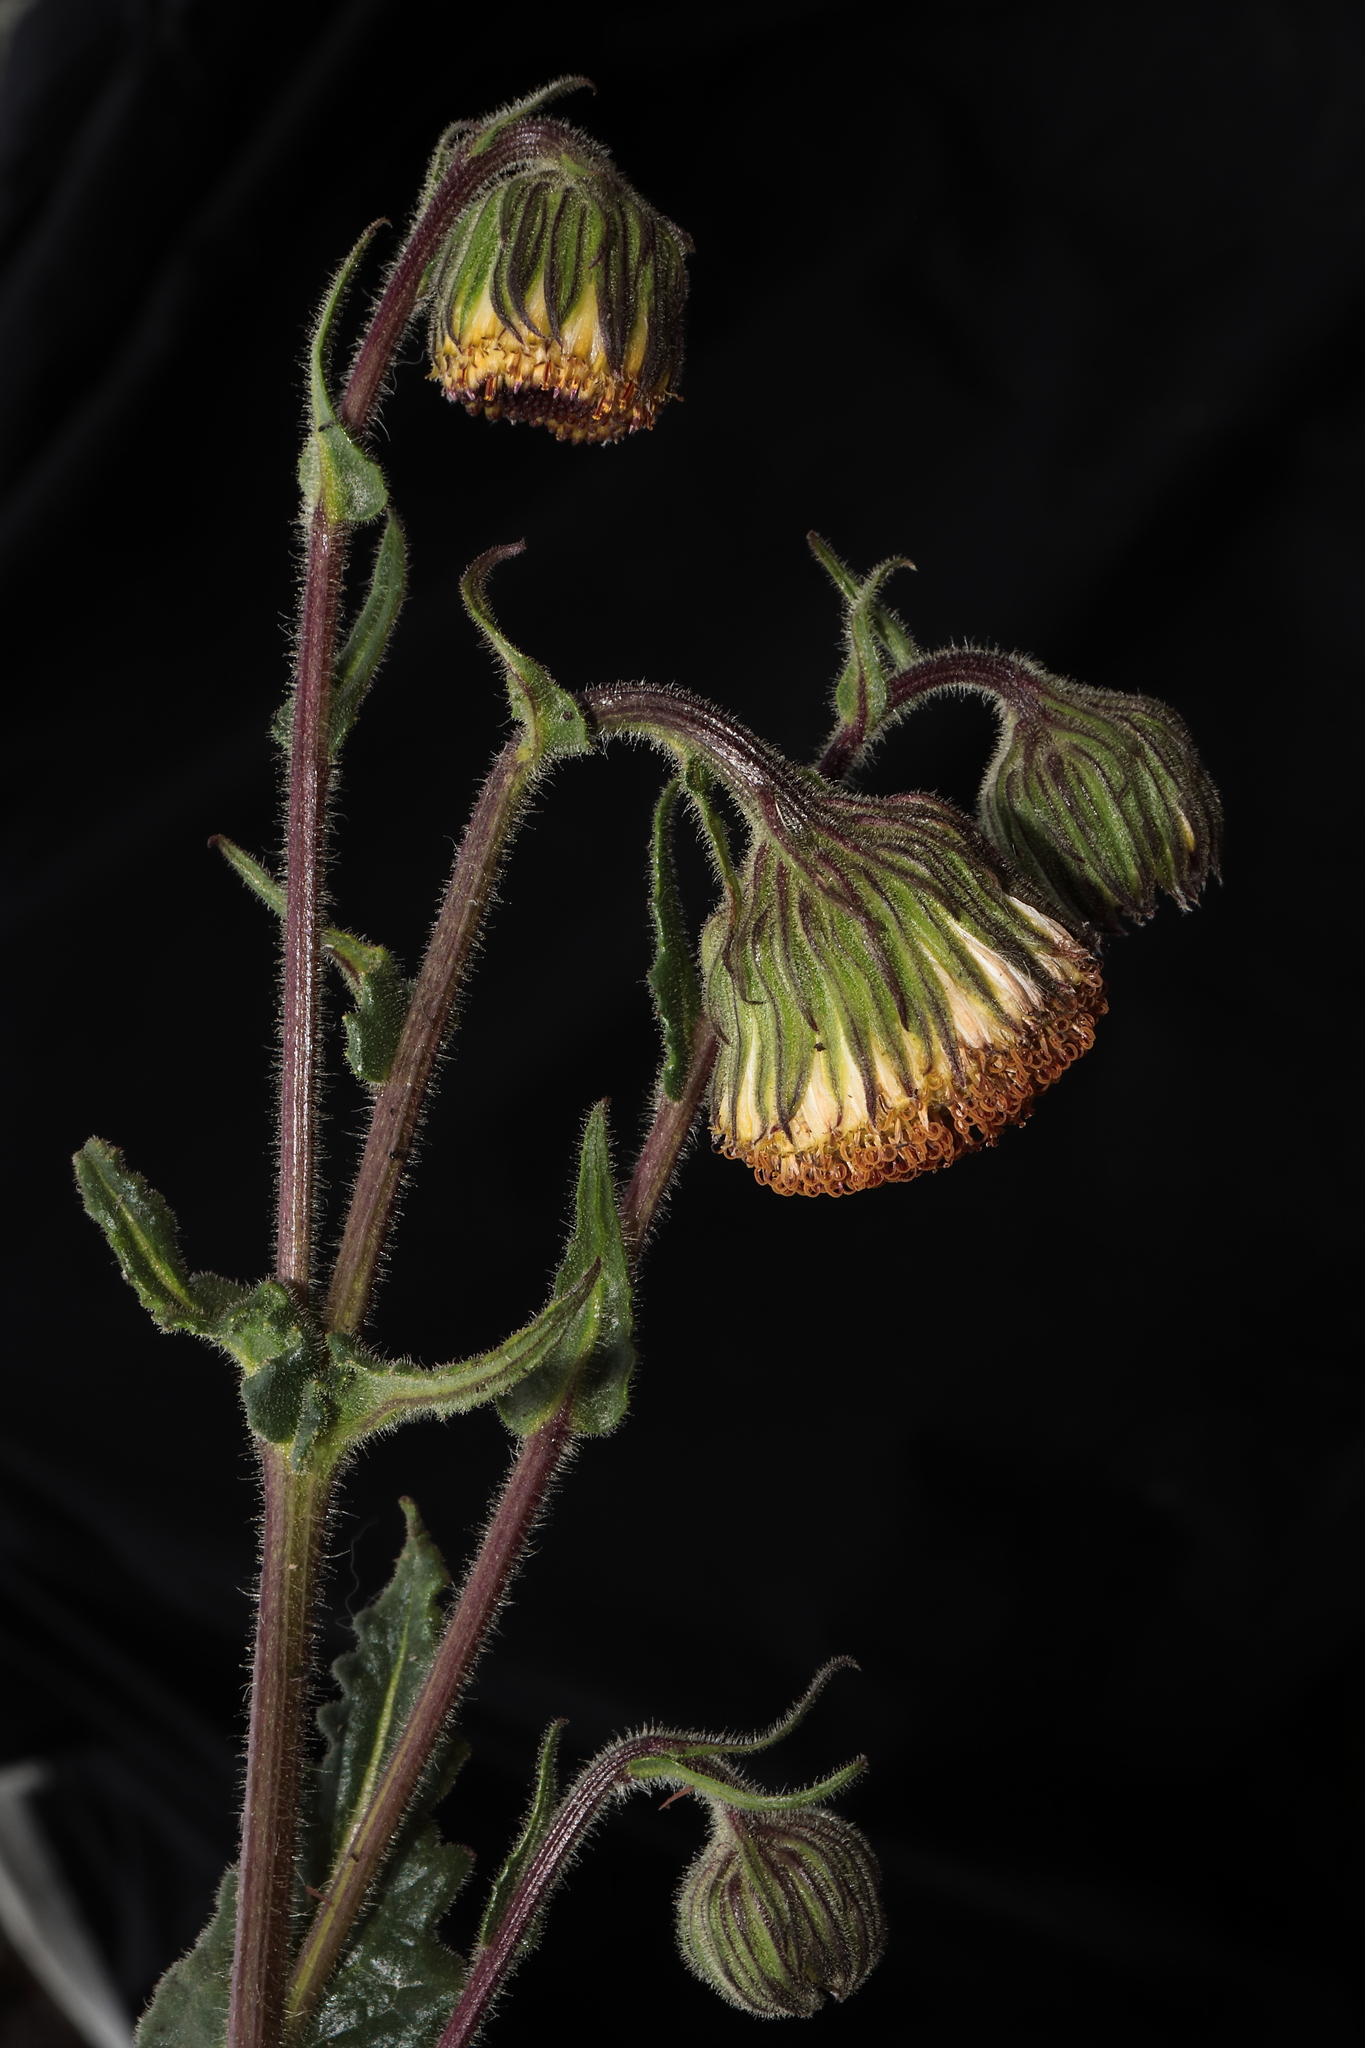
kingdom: Plantae
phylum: Tracheophyta
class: Magnoliopsida
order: Asterales
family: Asteraceae
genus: Senecio
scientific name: Senecio rhizomatus
